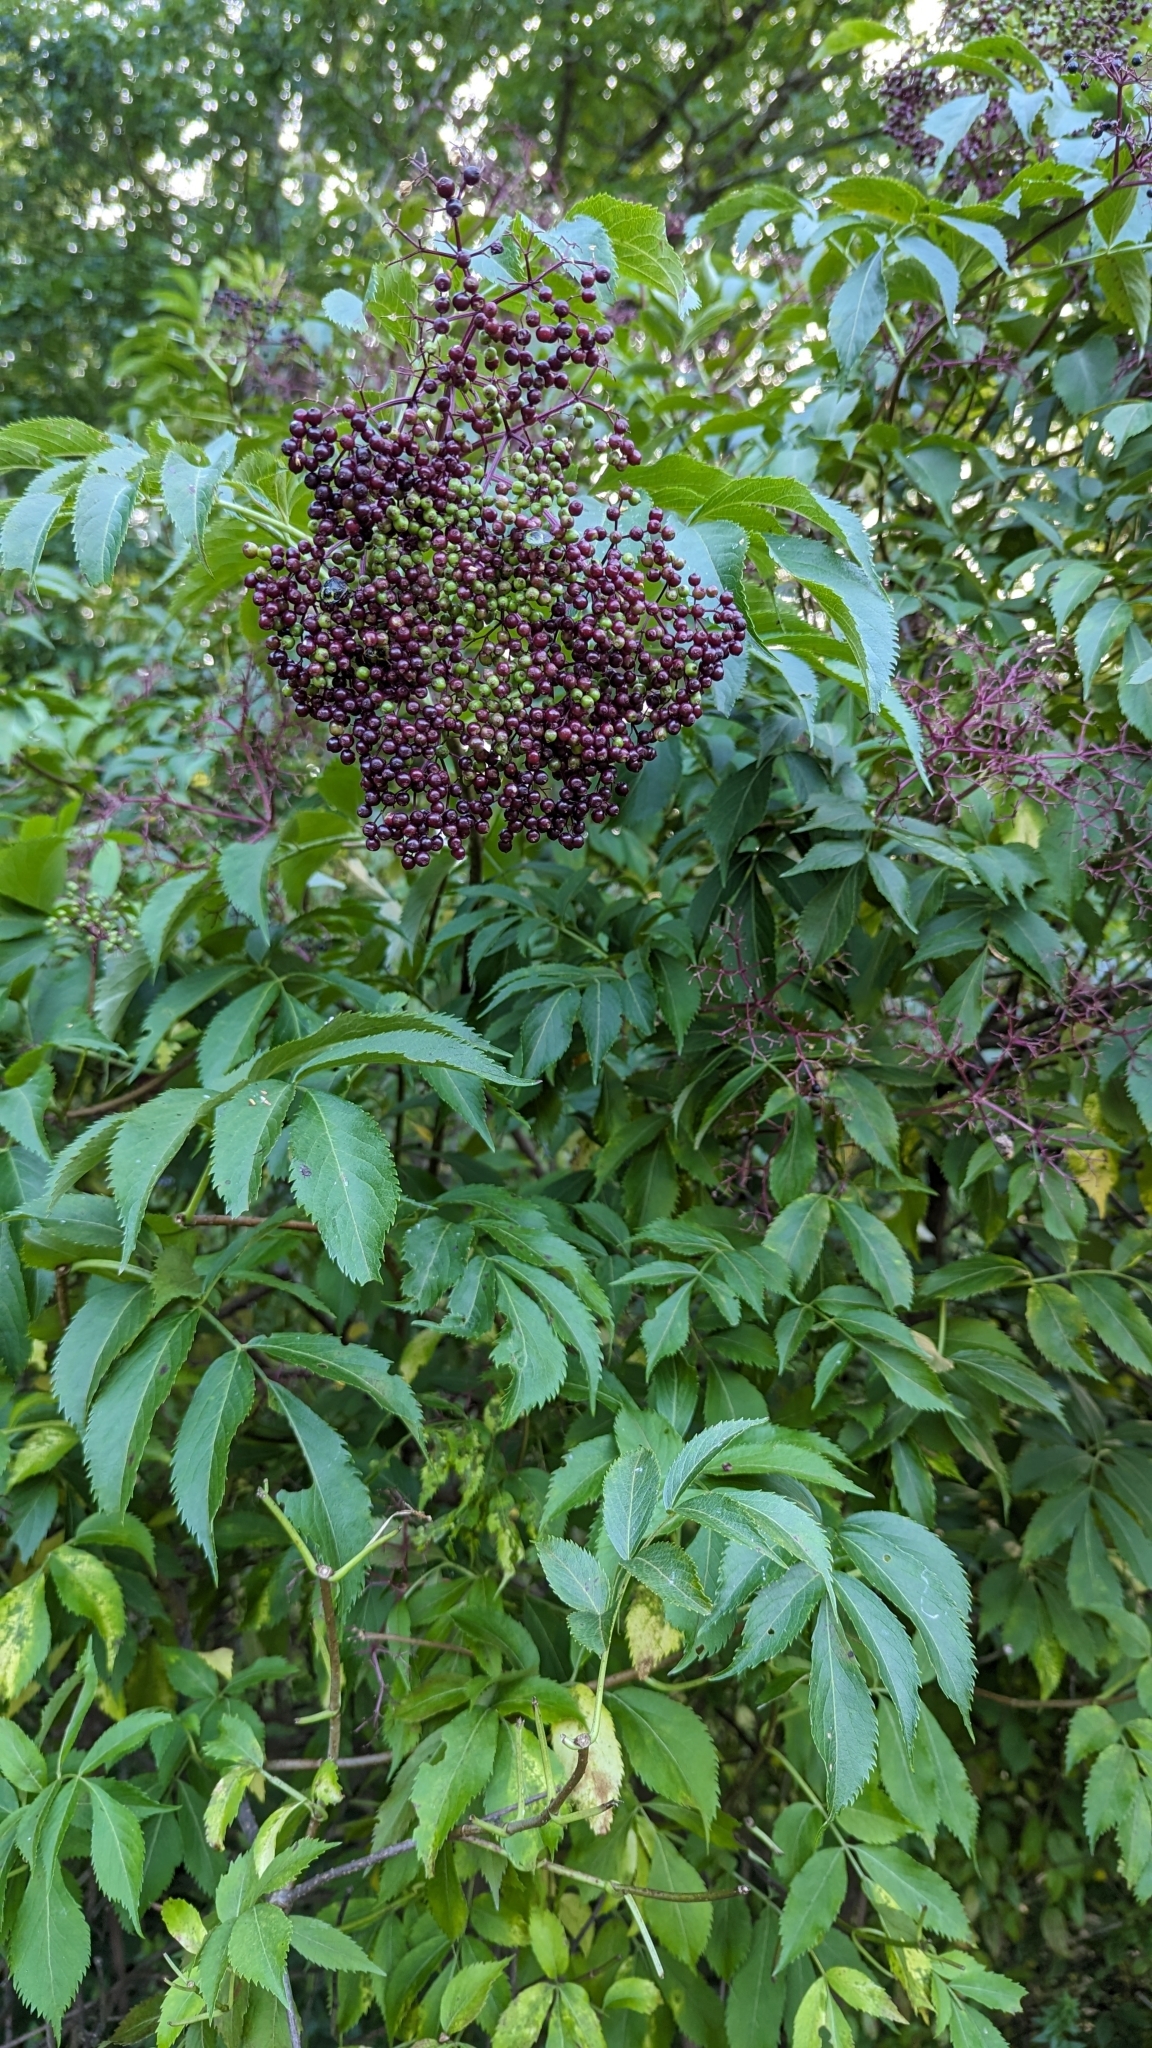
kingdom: Plantae
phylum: Tracheophyta
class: Magnoliopsida
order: Dipsacales
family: Viburnaceae
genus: Sambucus
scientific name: Sambucus canadensis
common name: American elder
